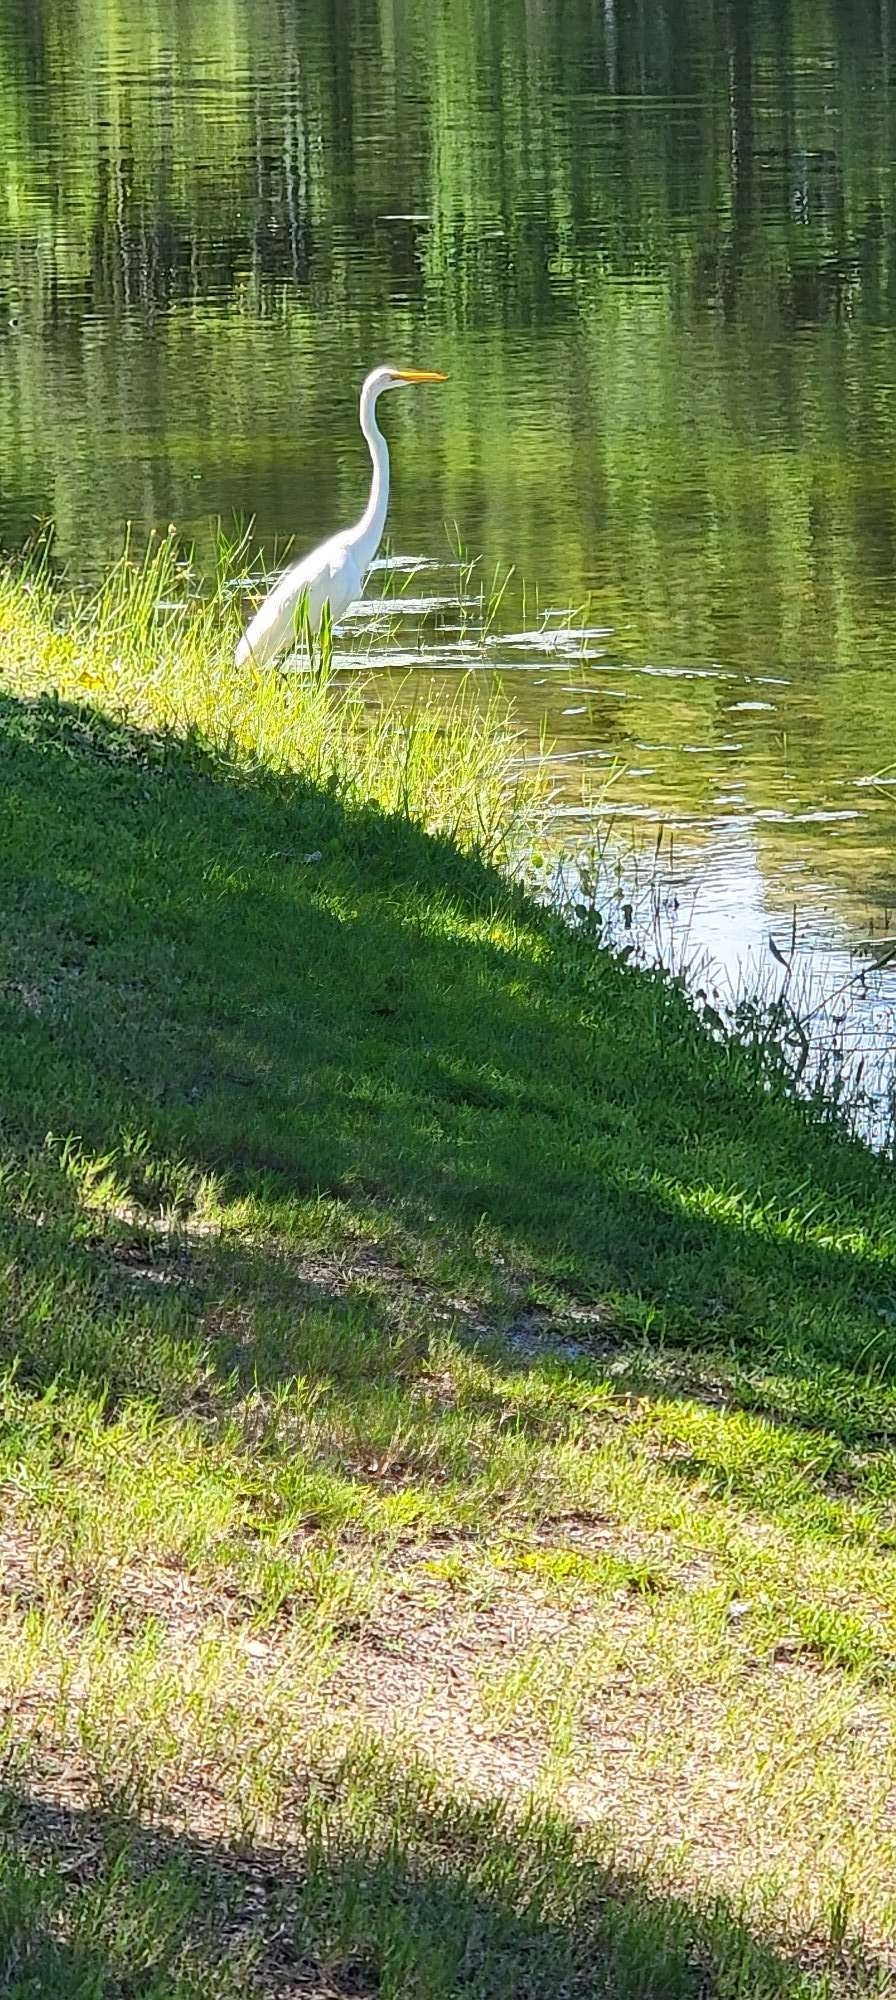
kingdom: Animalia
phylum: Chordata
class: Aves
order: Pelecaniformes
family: Ardeidae
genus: Ardea
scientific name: Ardea alba
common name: Great egret
